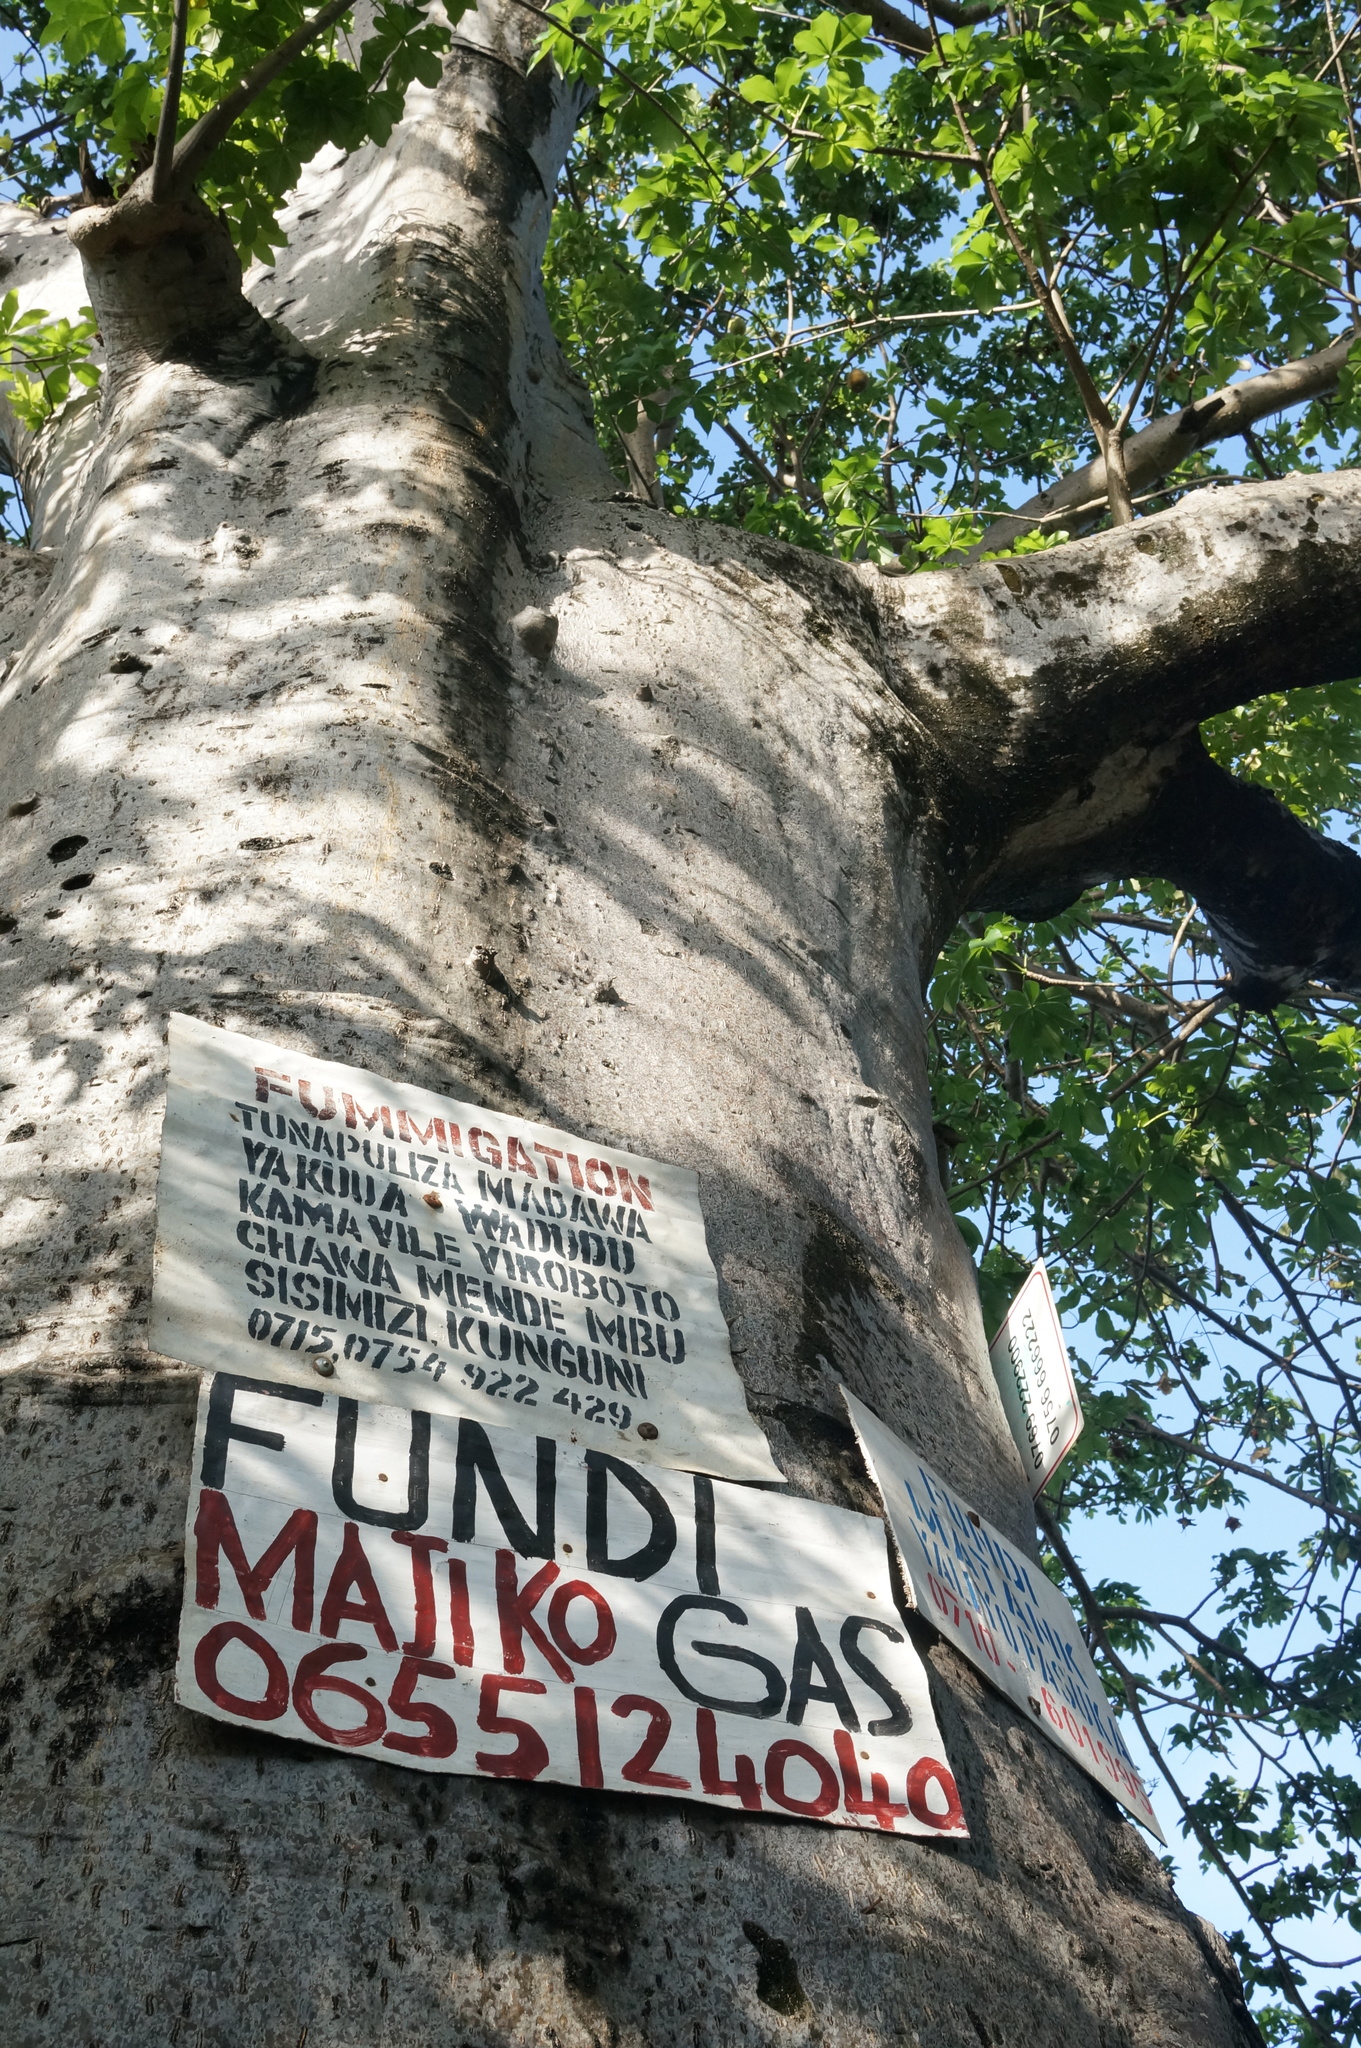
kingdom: Plantae
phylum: Tracheophyta
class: Magnoliopsida
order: Malvales
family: Malvaceae
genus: Adansonia
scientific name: Adansonia digitata
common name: Dead-rat-tree
